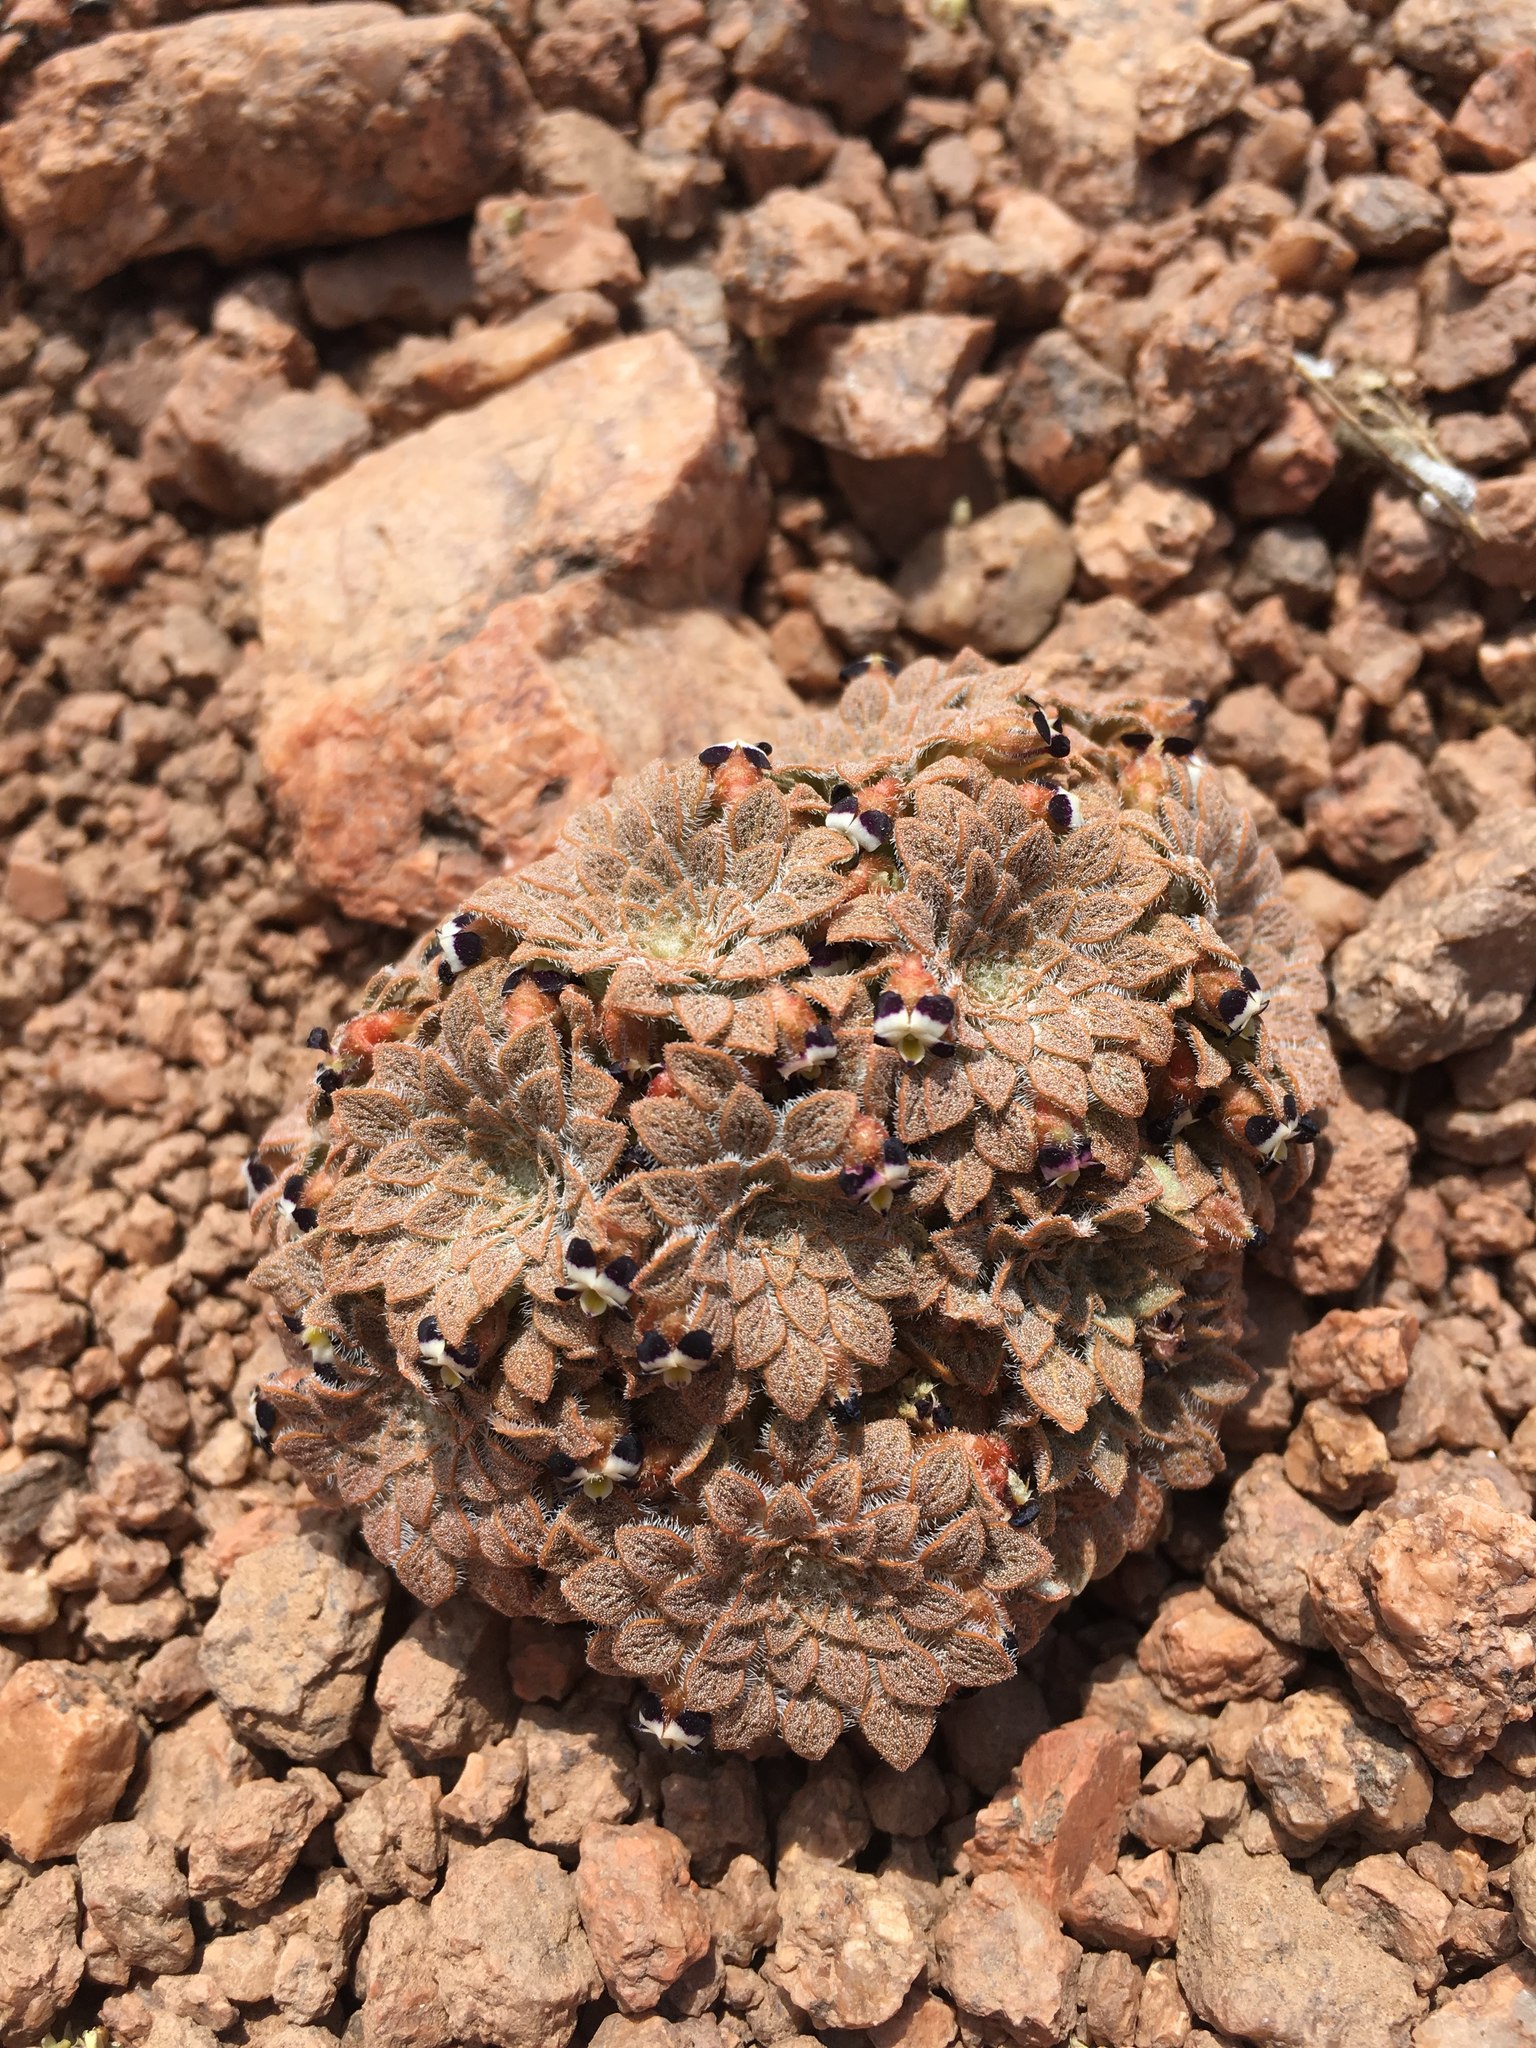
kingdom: Plantae
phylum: Tracheophyta
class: Magnoliopsida
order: Malpighiales
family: Violaceae
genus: Viola
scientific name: Viola montagnei
